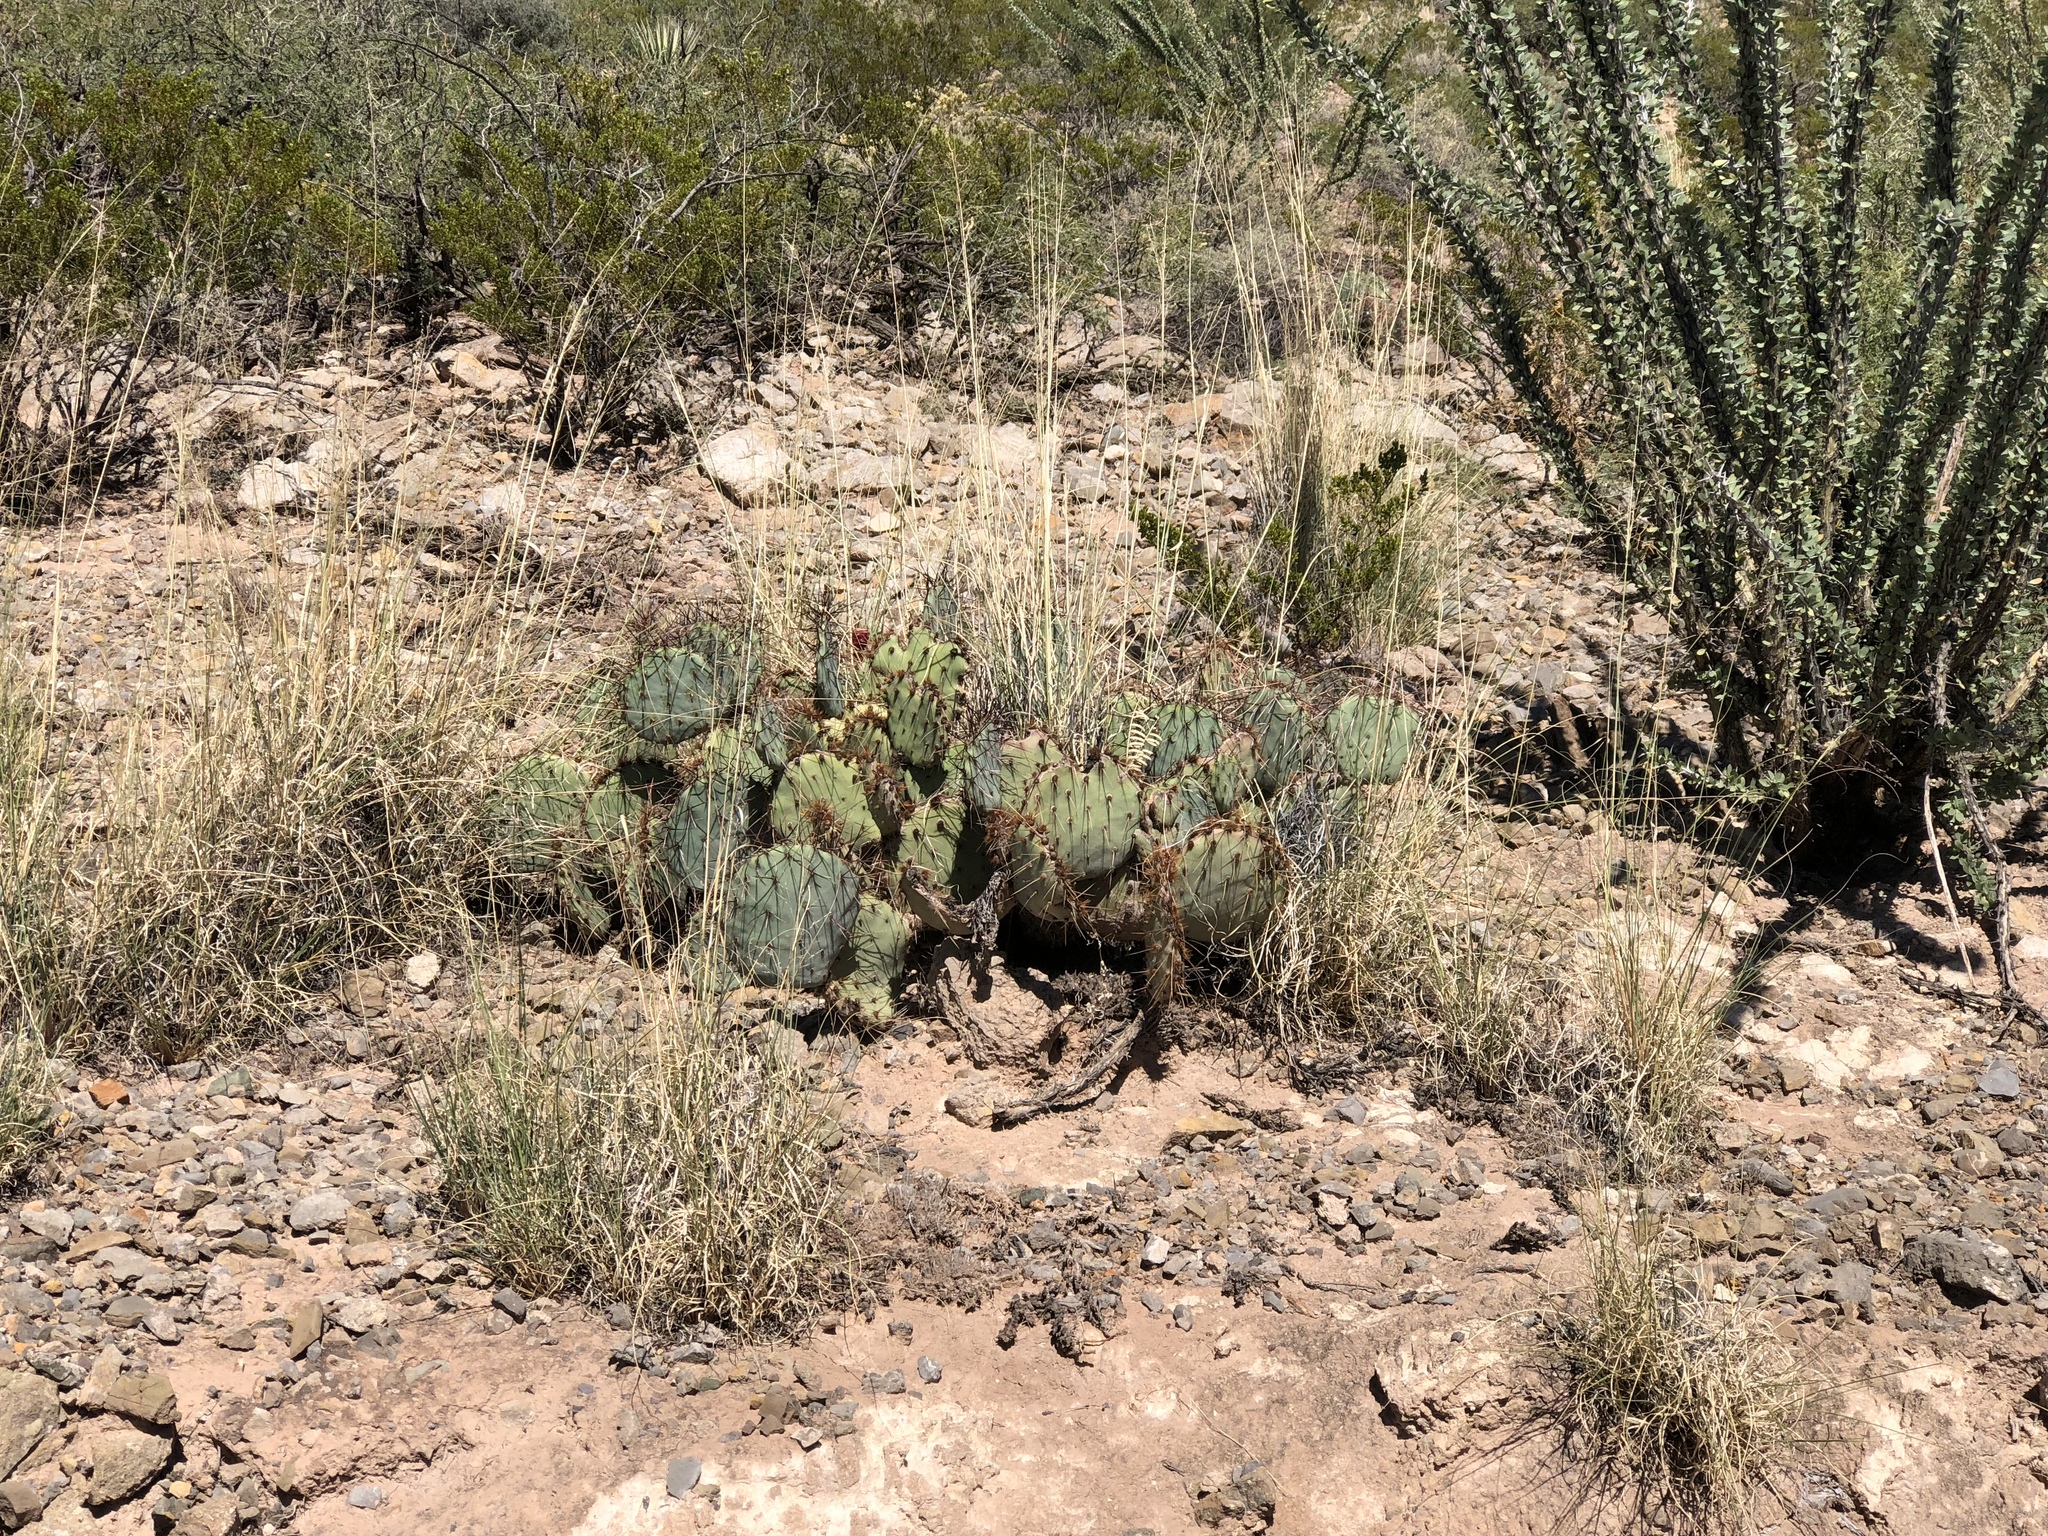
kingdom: Plantae
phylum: Tracheophyta
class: Magnoliopsida
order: Caryophyllales
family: Cactaceae
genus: Opuntia
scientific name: Opuntia macrocentra
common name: Purple prickly-pear
